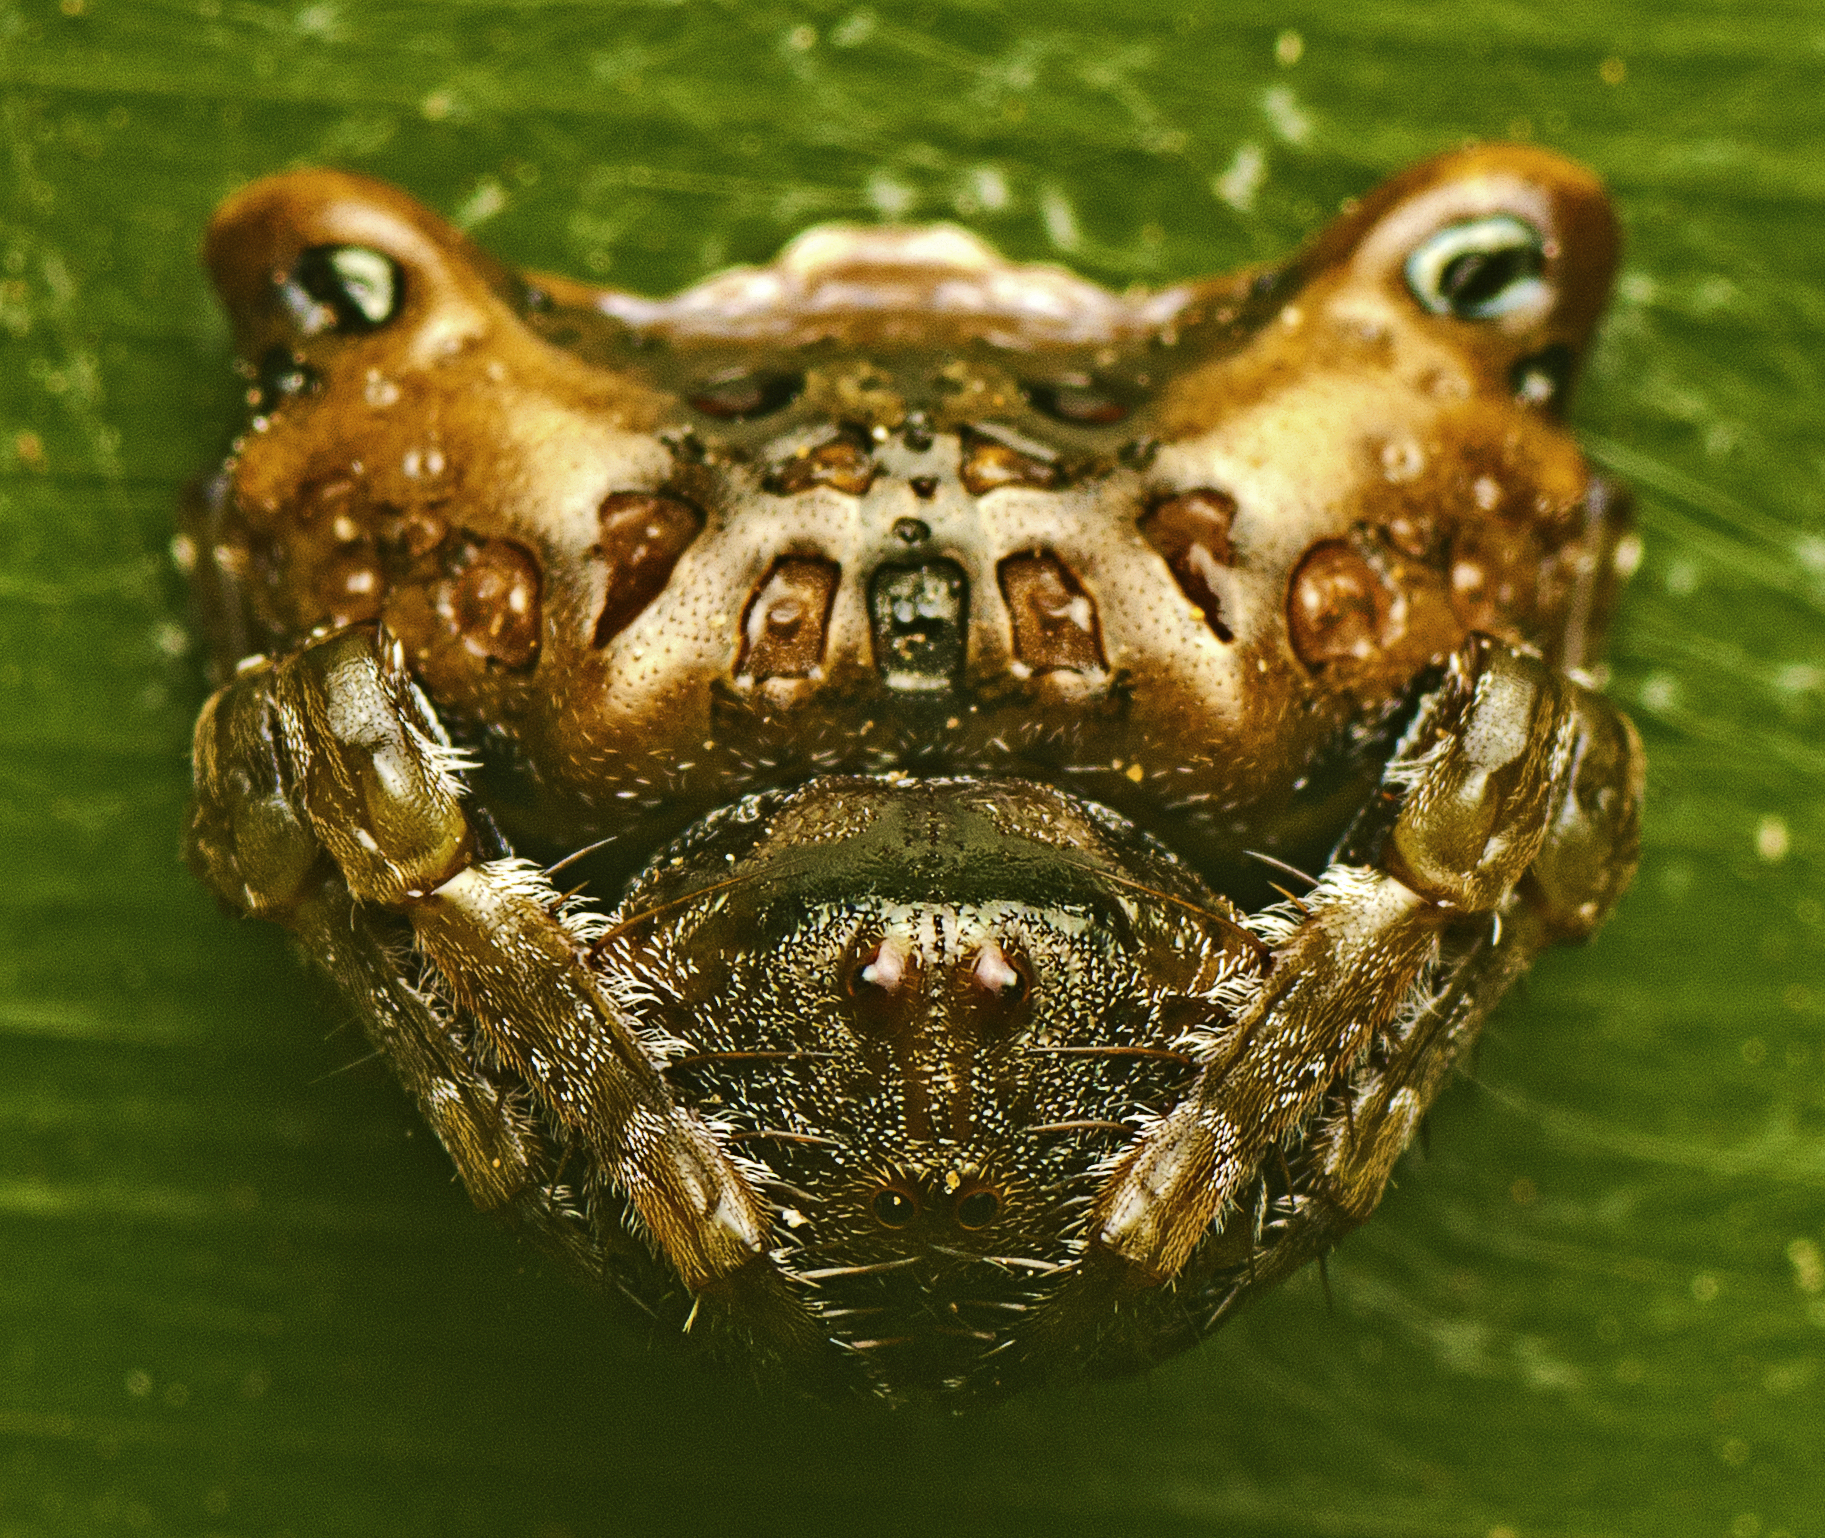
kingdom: Animalia
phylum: Arthropoda
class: Arachnida
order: Araneae
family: Arkyidae
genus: Arkys
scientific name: Arkys curtulus
